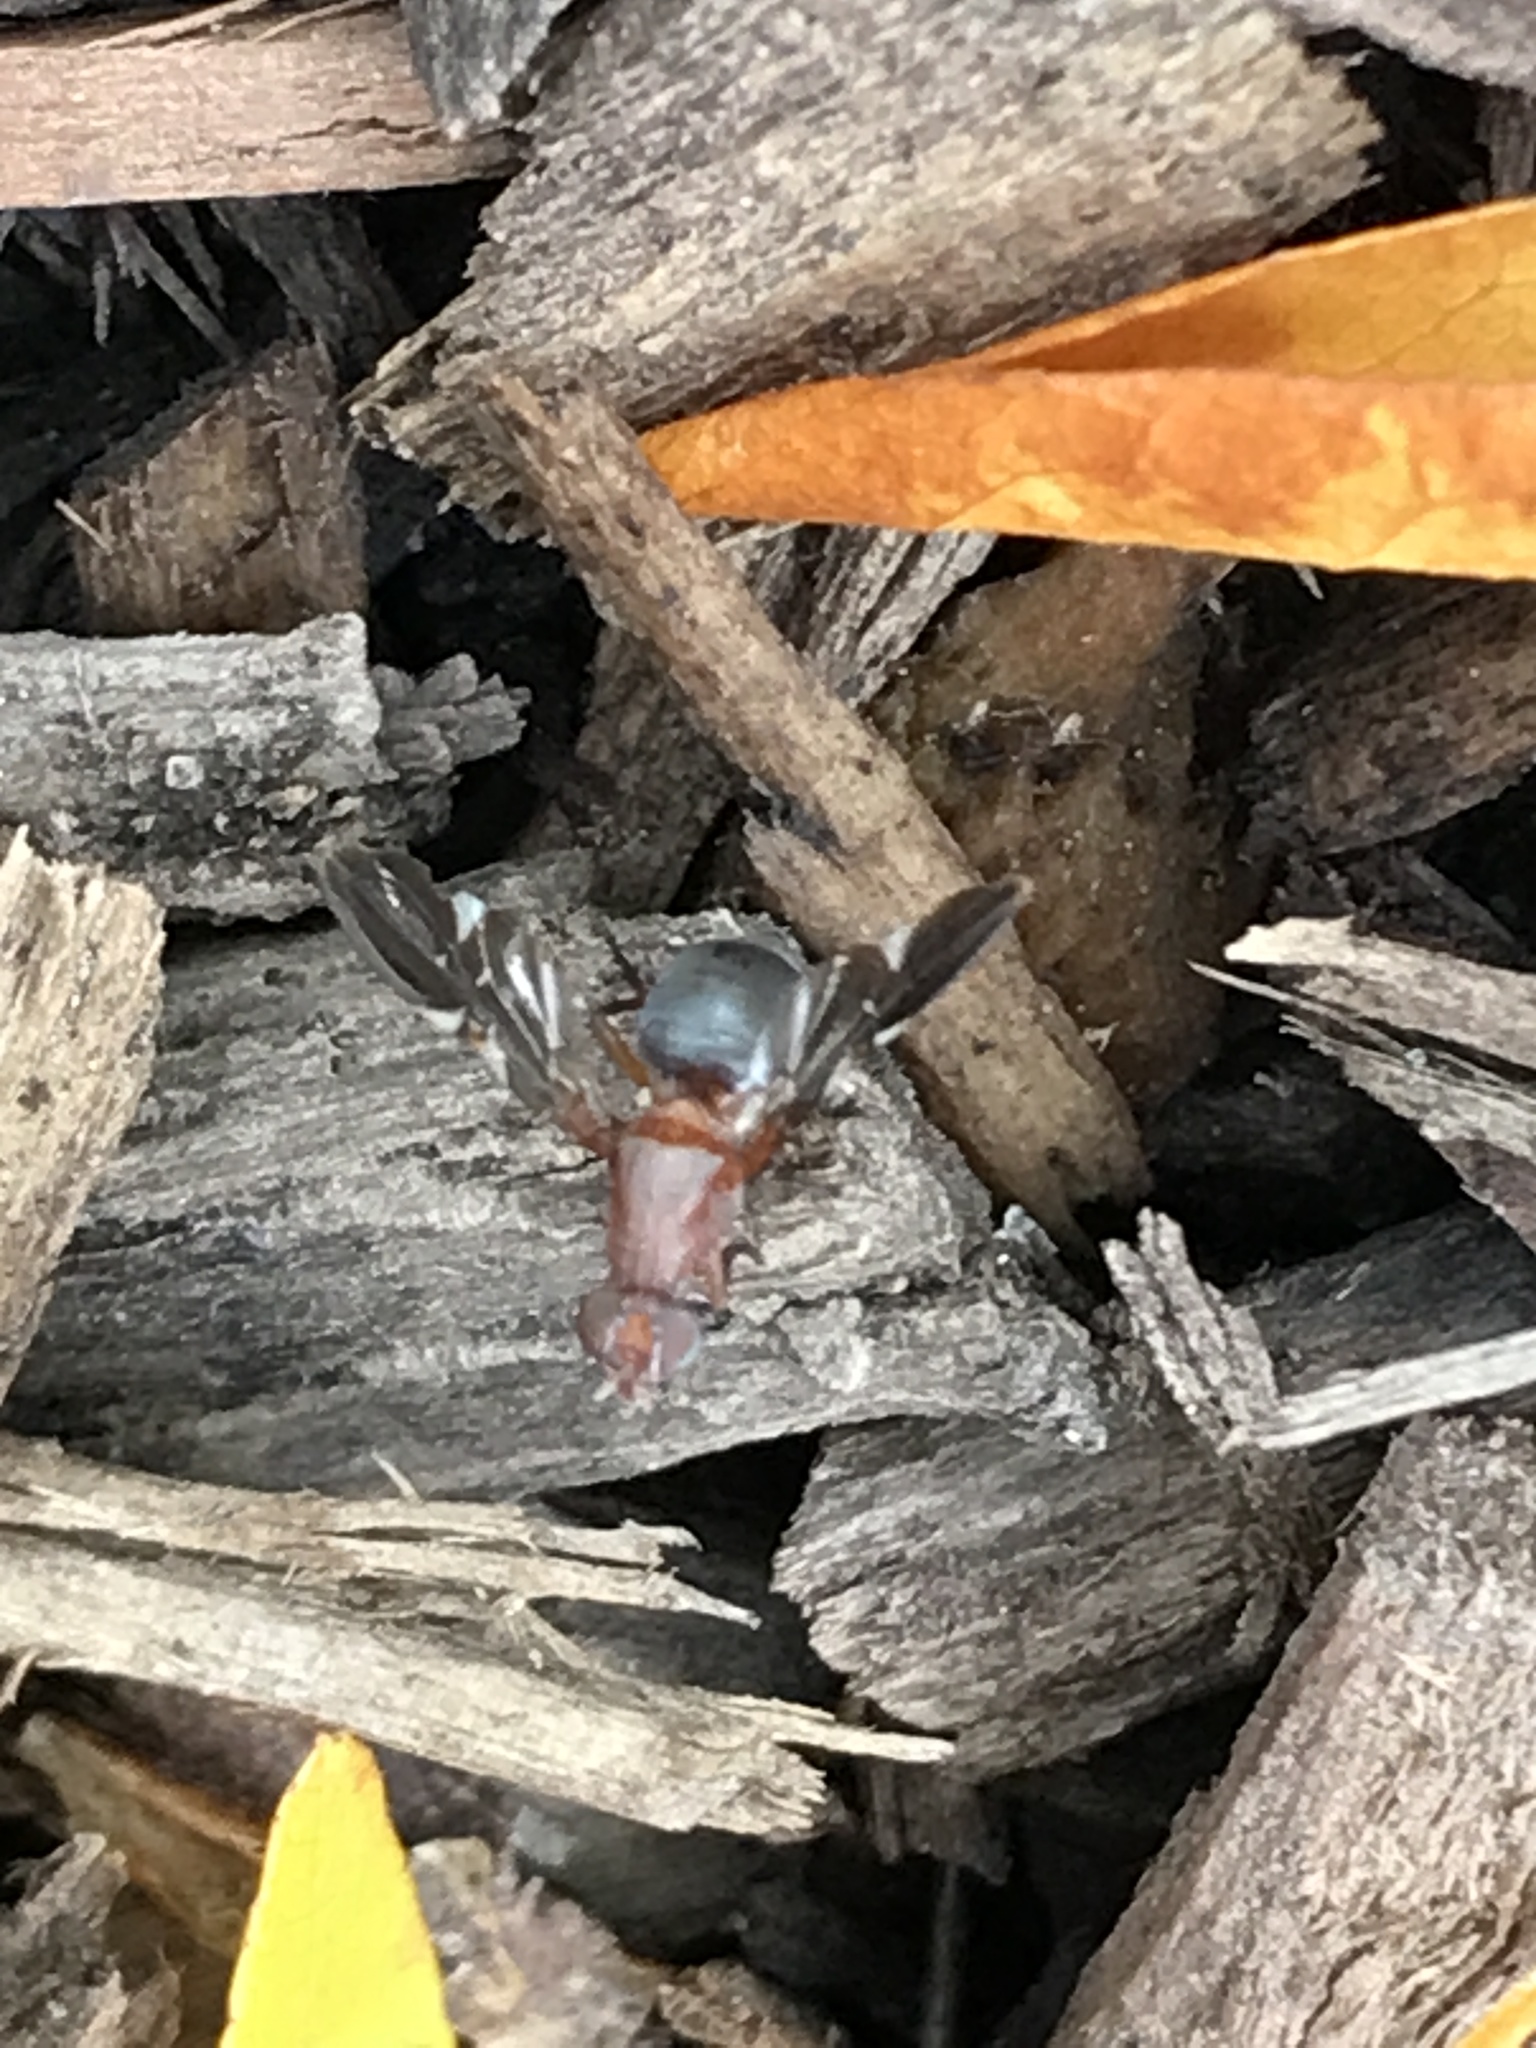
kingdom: Animalia
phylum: Arthropoda
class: Insecta
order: Diptera
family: Ulidiidae
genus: Delphinia
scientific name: Delphinia picta
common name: Common picture-winged fly
